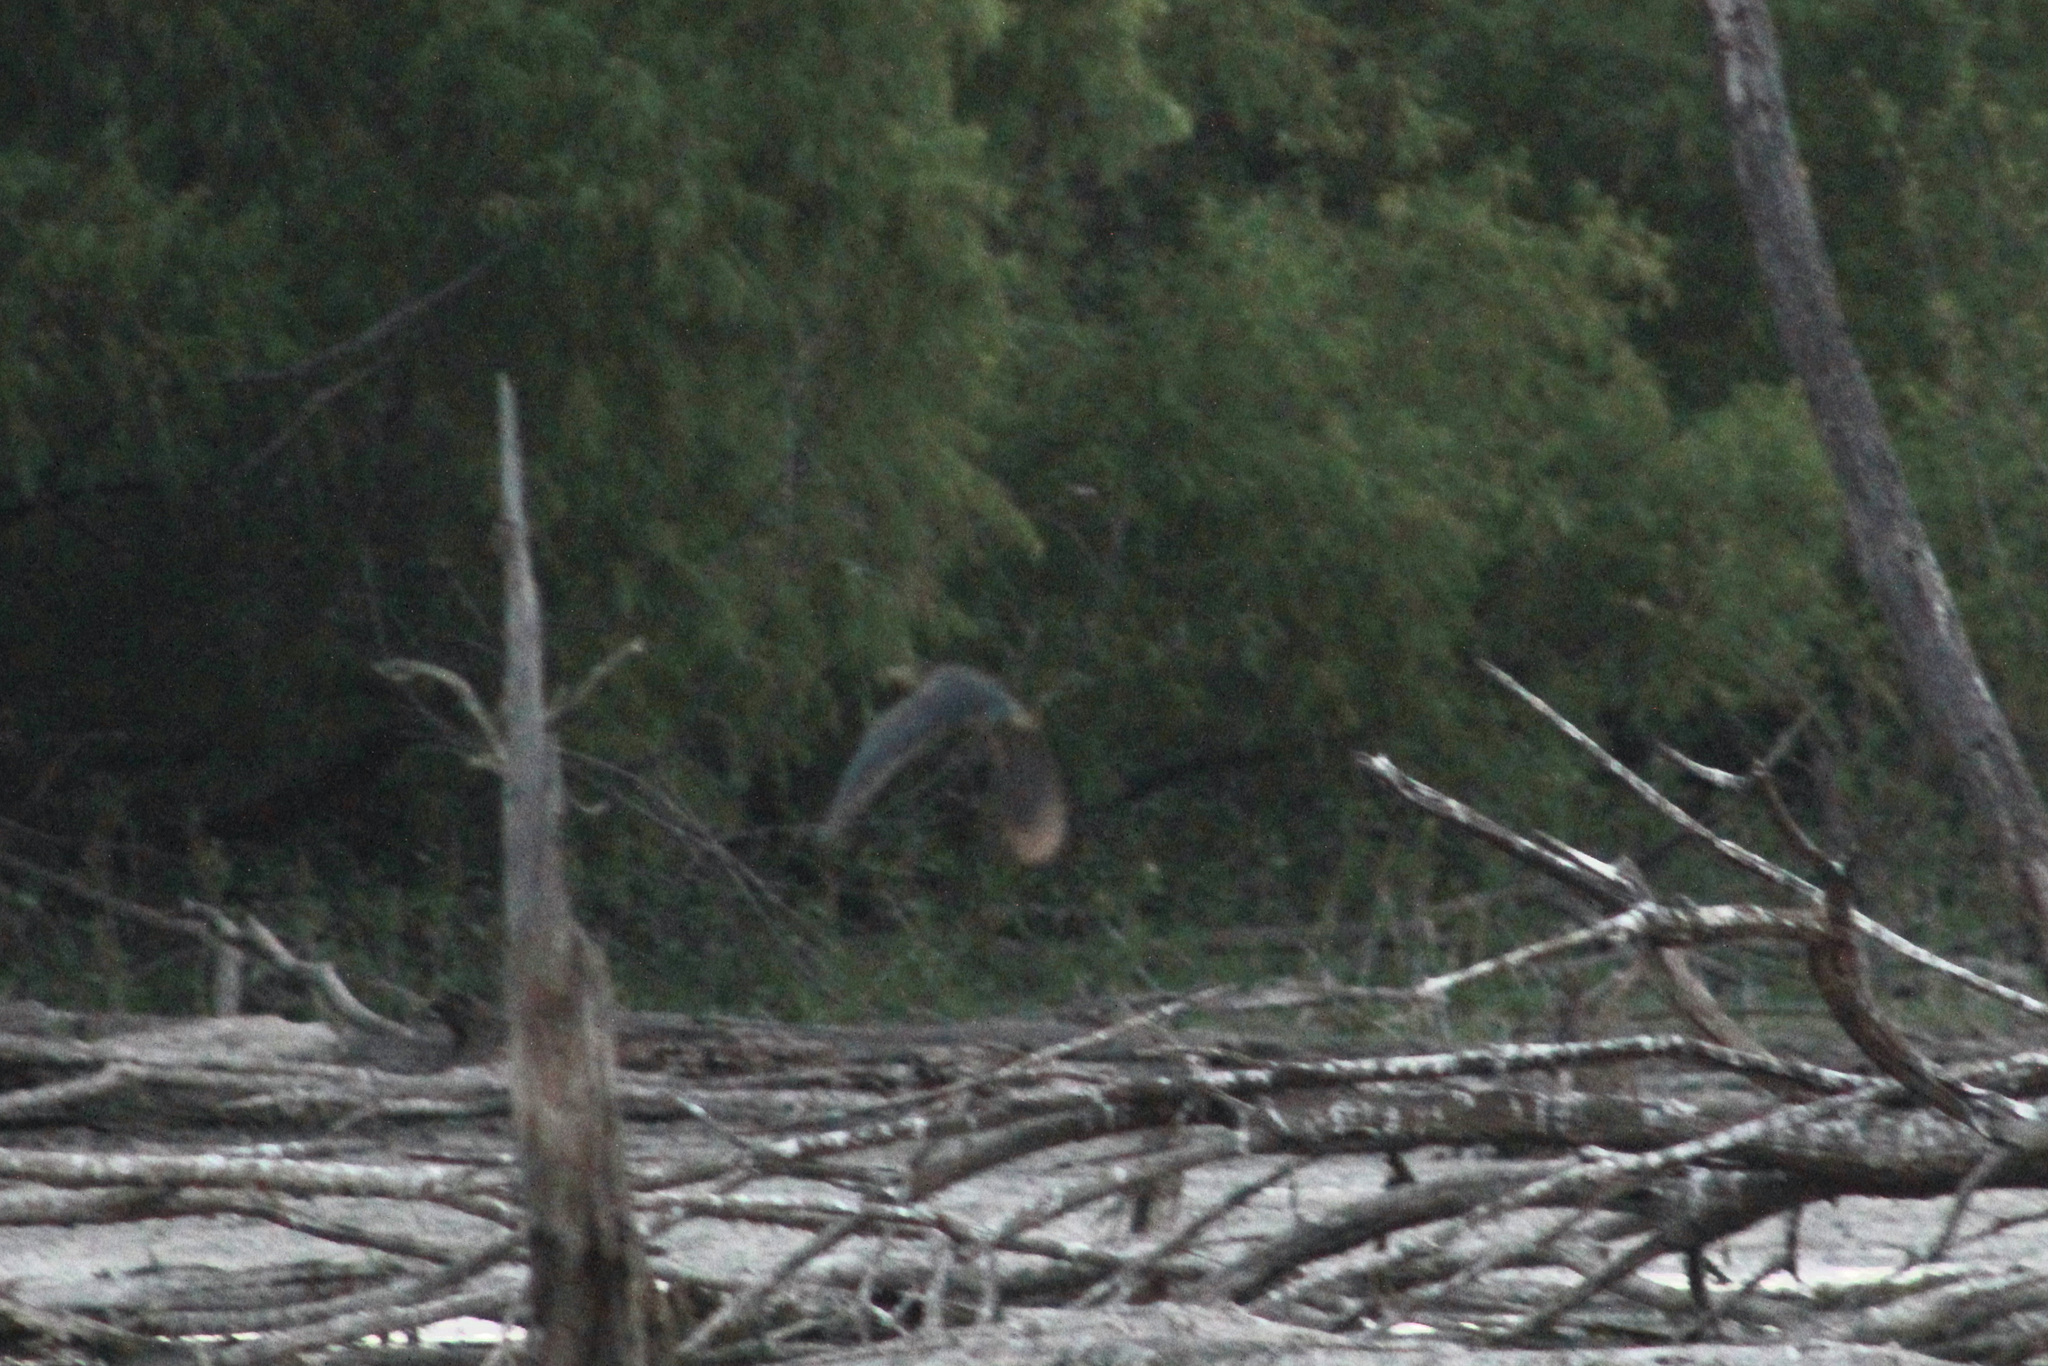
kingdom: Animalia
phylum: Chordata
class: Aves
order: Pelecaniformes
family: Ardeidae
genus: Butorides
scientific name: Butorides virescens
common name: Green heron
